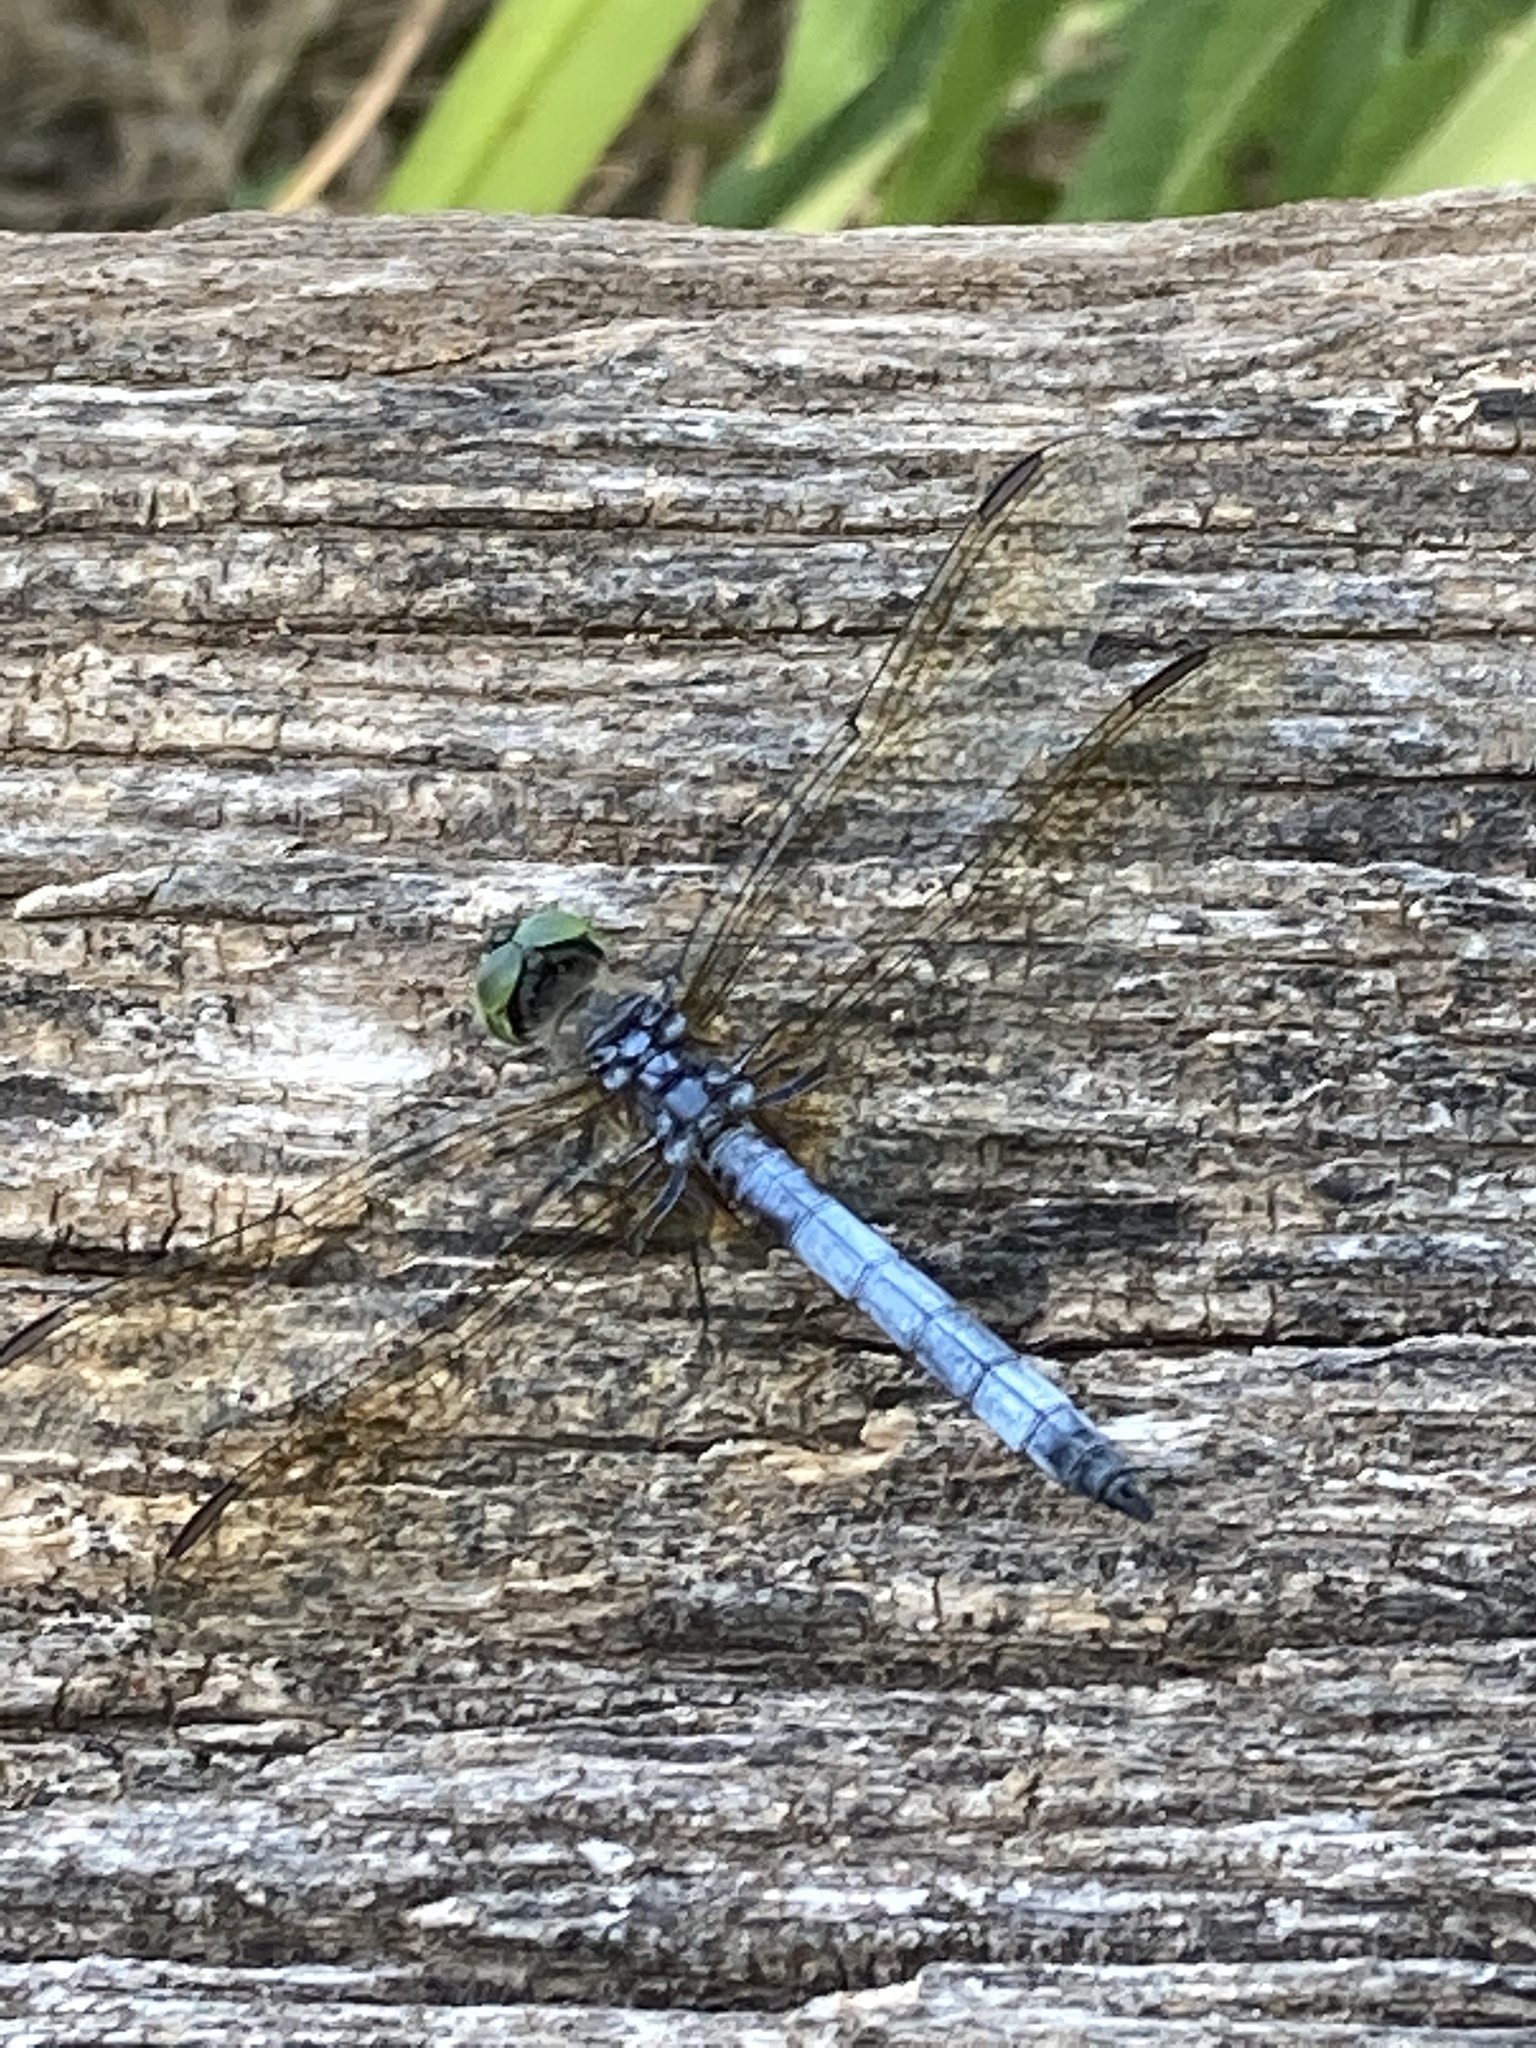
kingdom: Animalia
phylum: Arthropoda
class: Insecta
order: Odonata
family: Libellulidae
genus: Pachydiplax
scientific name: Pachydiplax longipennis
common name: Blue dasher
